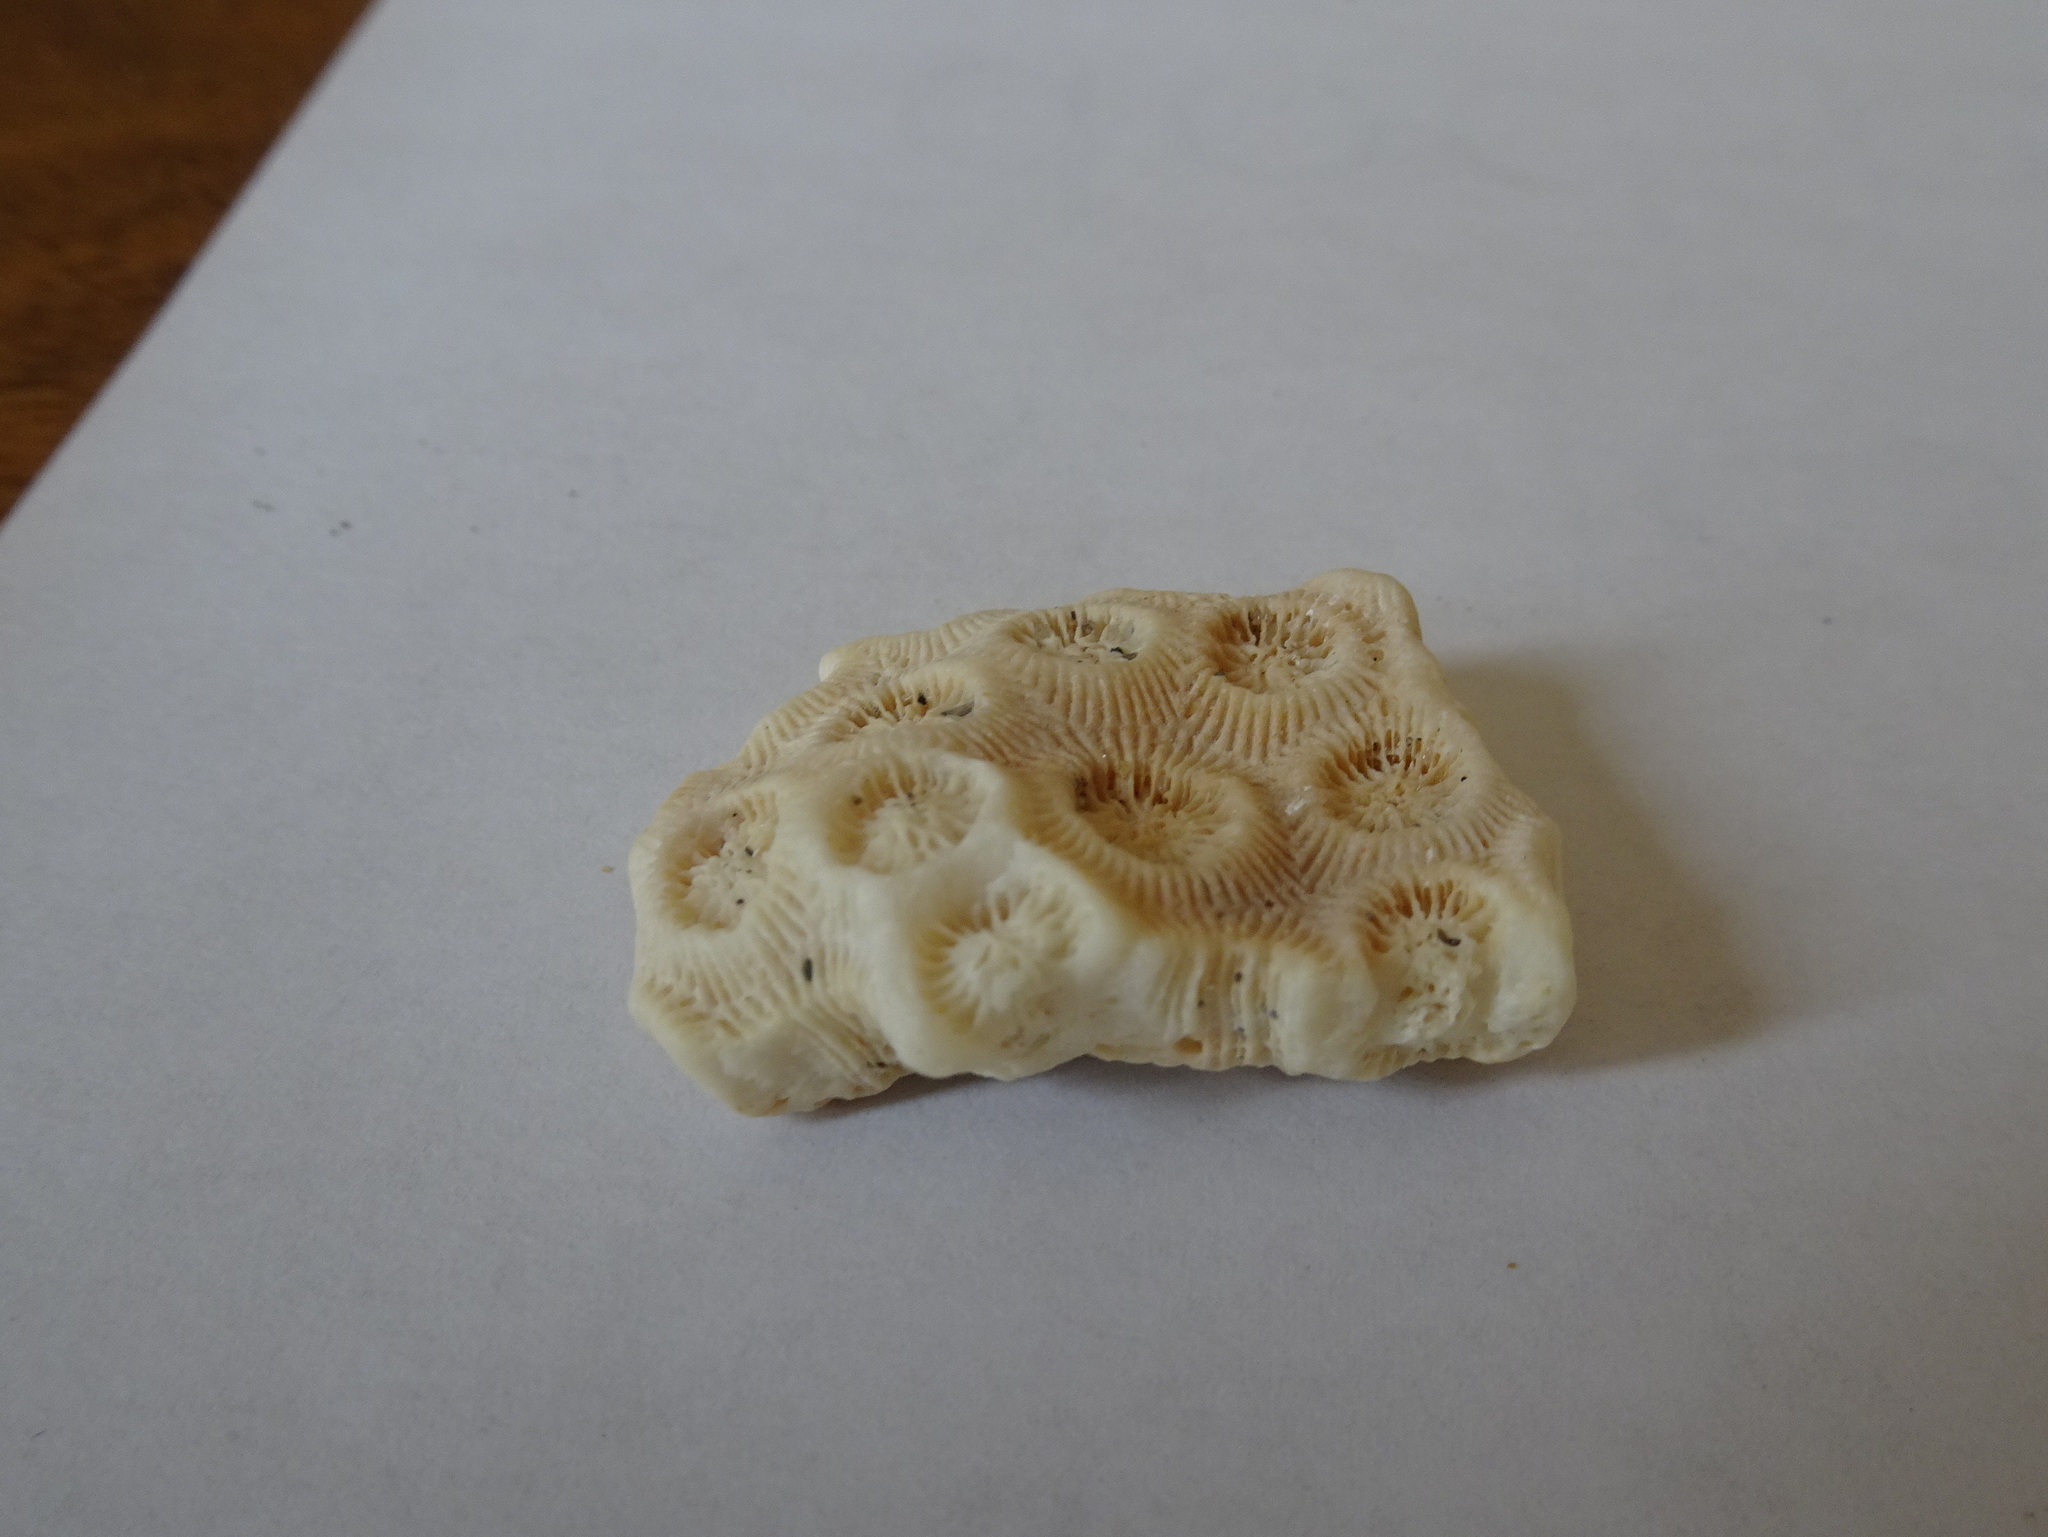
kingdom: Animalia
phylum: Cnidaria
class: Anthozoa
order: Scleractinia
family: Montastraeidae
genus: Montastraea
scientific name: Montastraea cavernosa
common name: Great star coral
